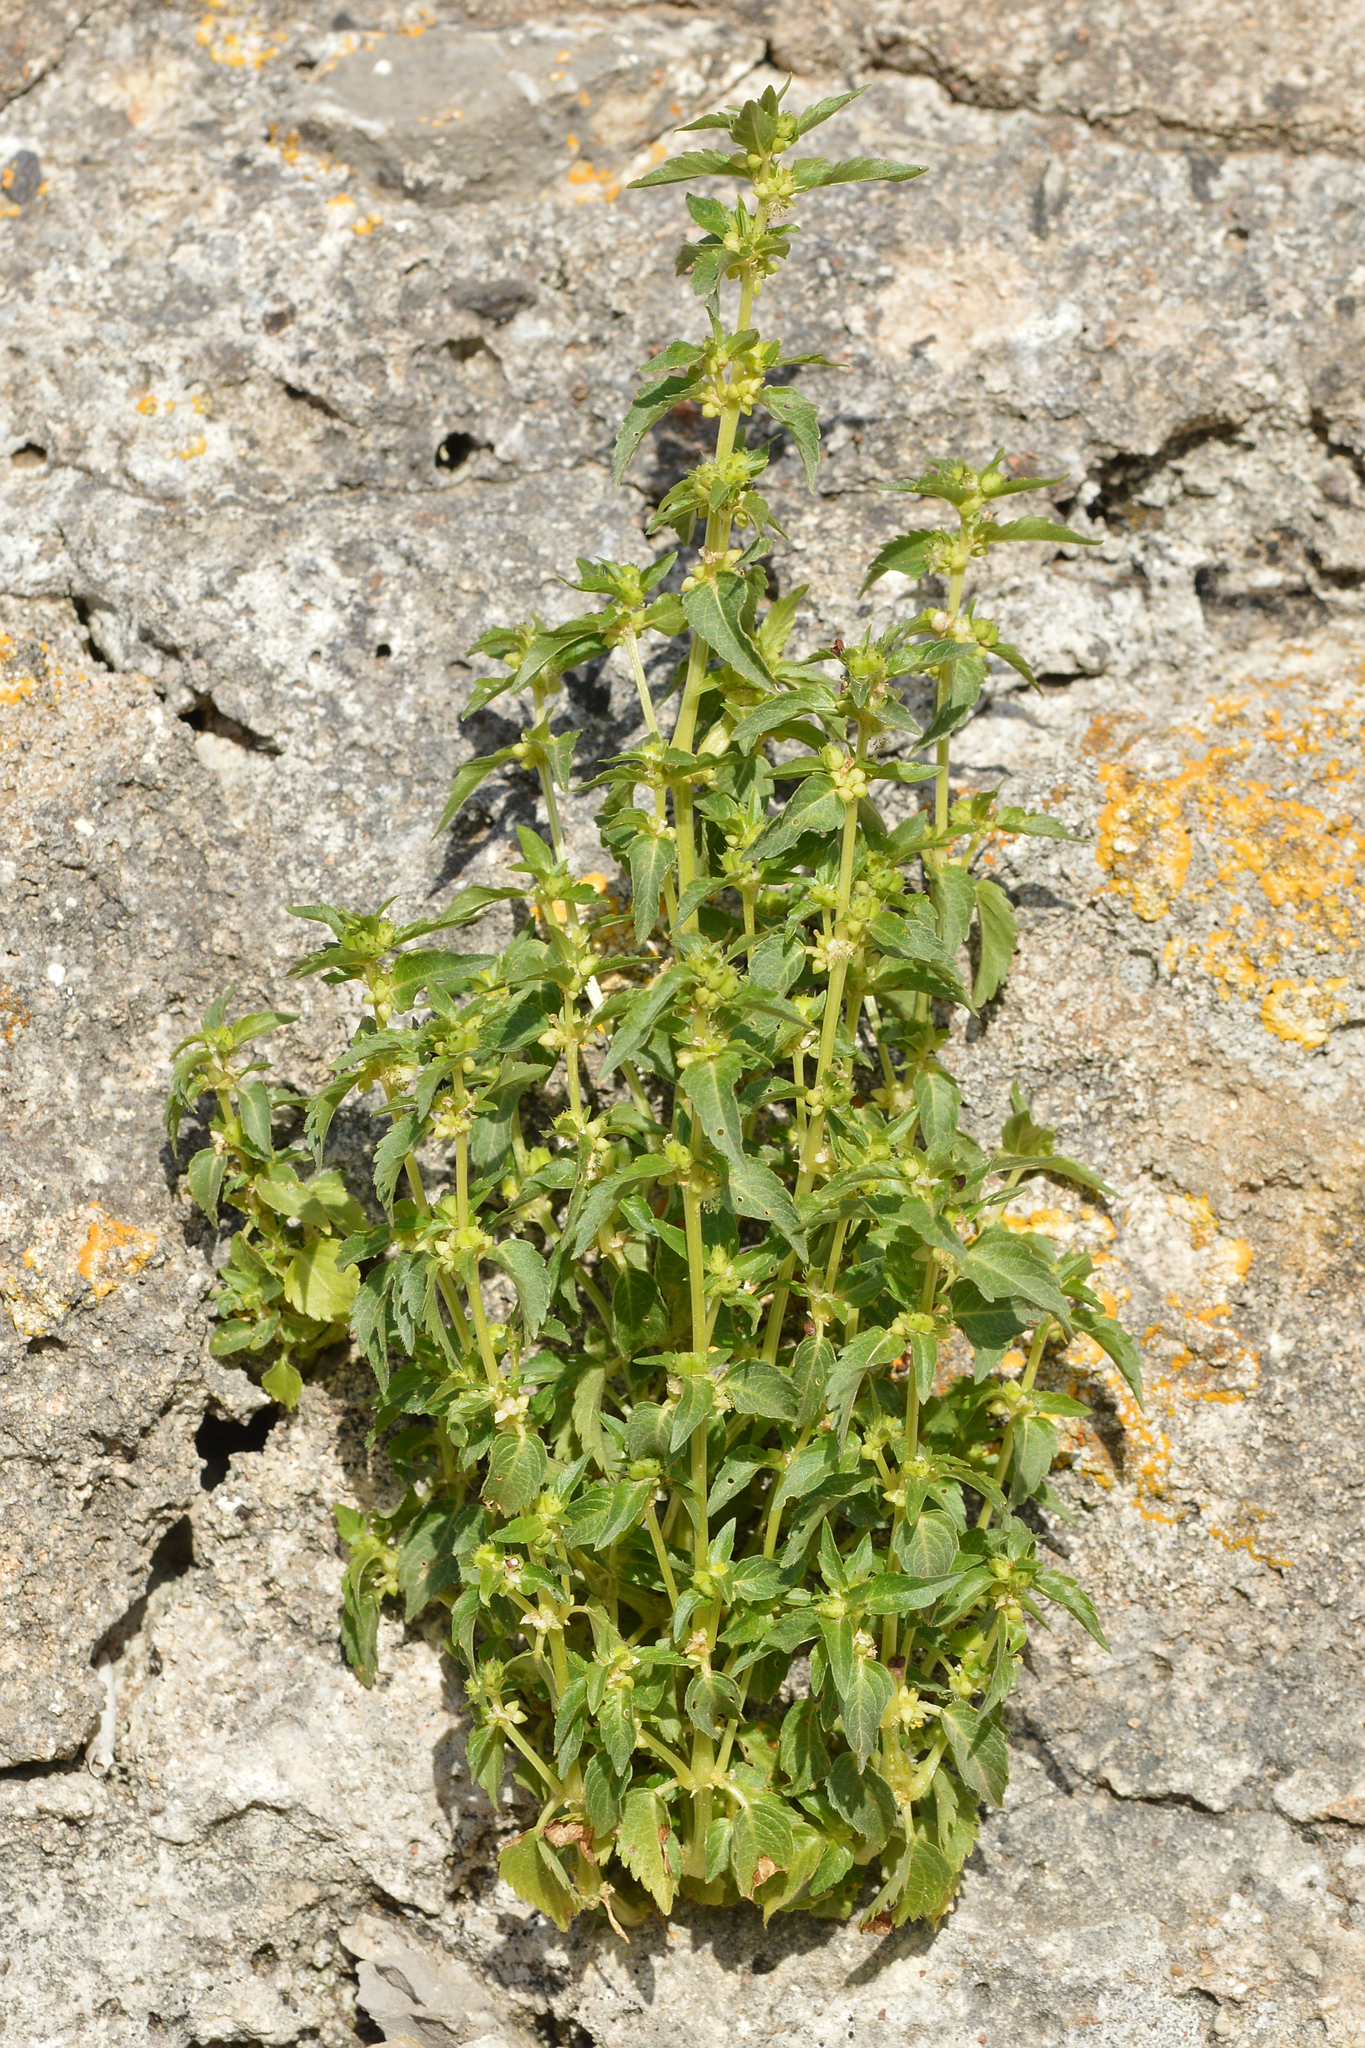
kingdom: Plantae
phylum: Tracheophyta
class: Magnoliopsida
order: Malpighiales
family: Euphorbiaceae
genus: Mercurialis
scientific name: Mercurialis annua
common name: Annual mercury
